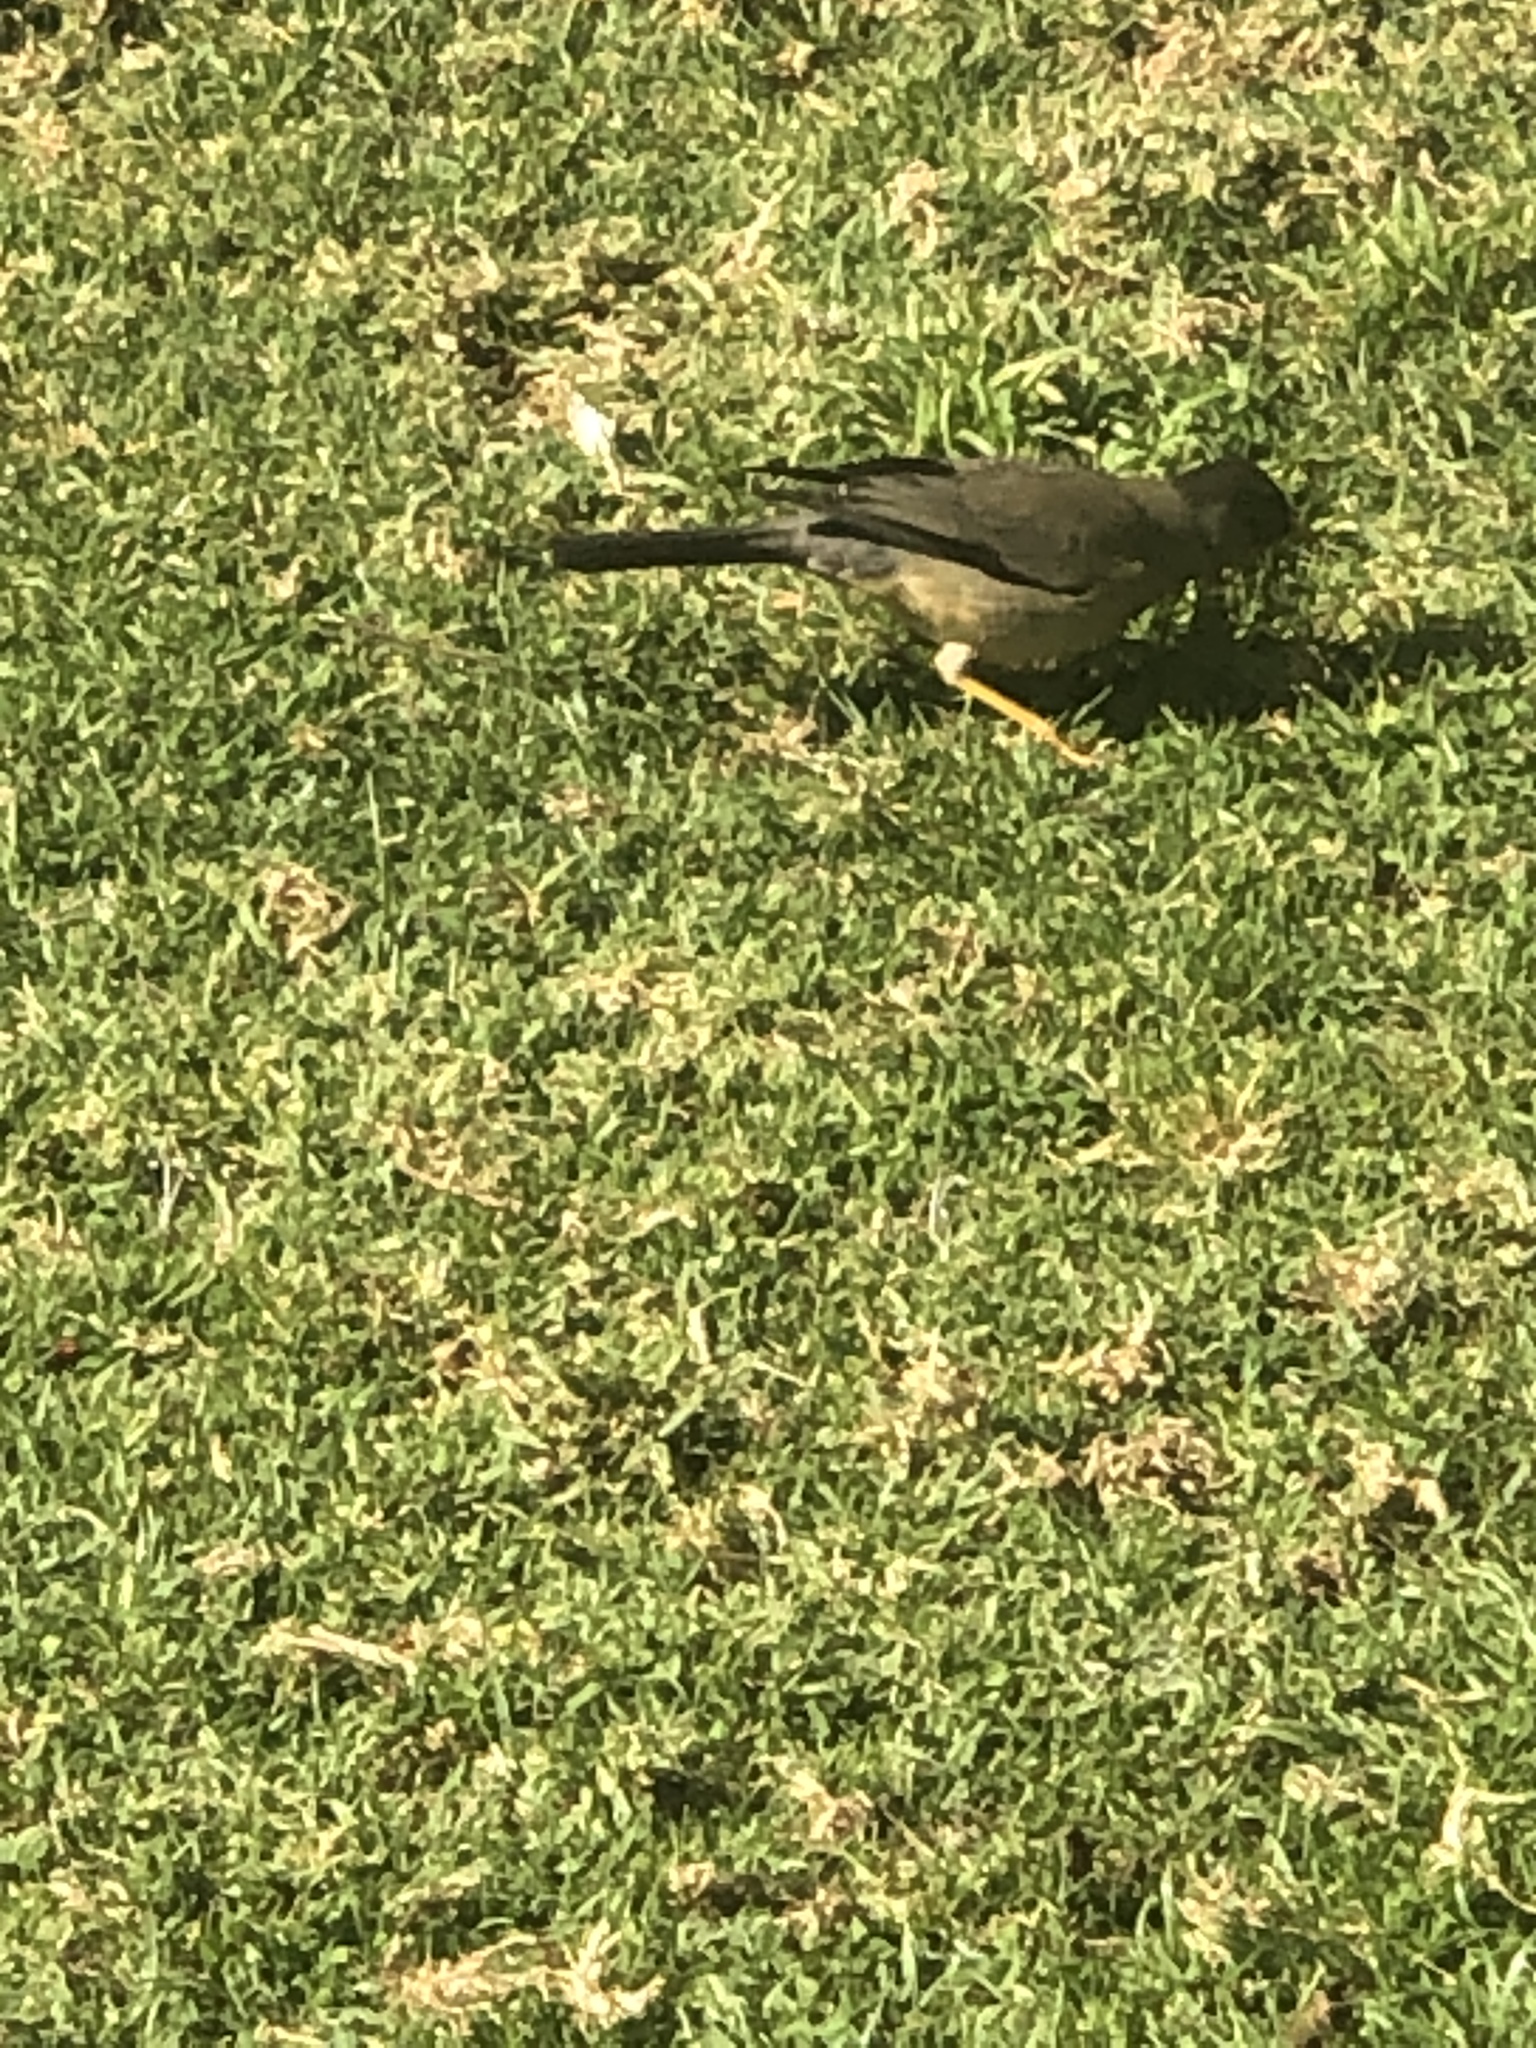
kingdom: Animalia
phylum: Chordata
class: Aves
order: Passeriformes
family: Turdidae
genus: Turdus
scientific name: Turdus falcklandii
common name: Austral thrush
